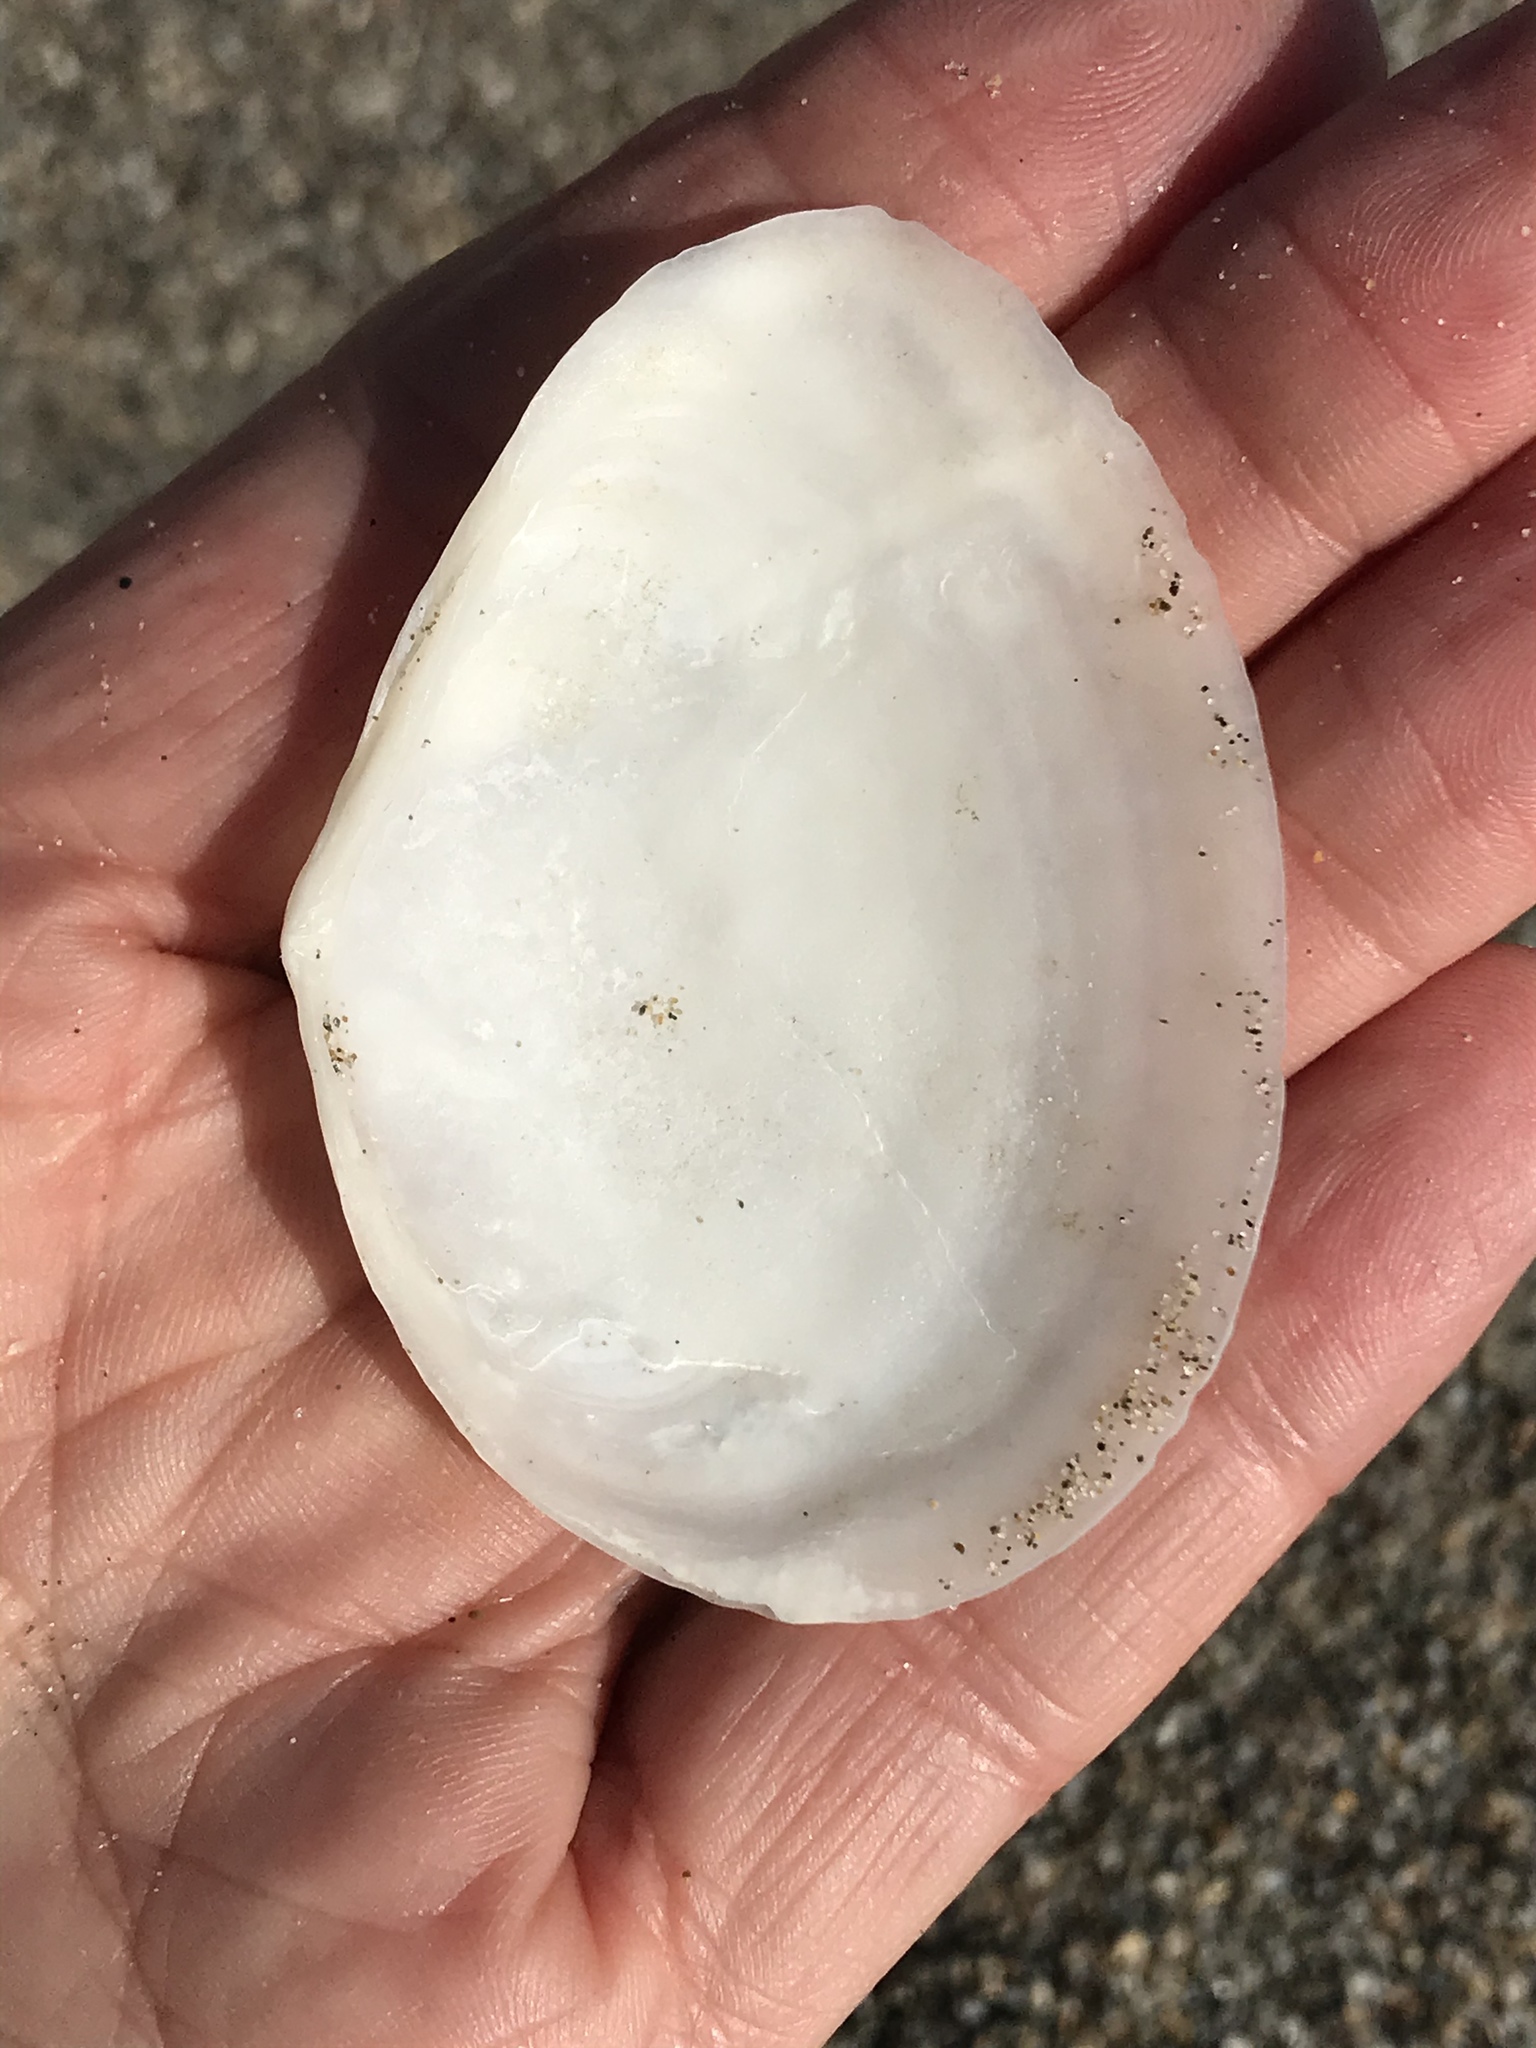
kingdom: Animalia
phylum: Mollusca
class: Bivalvia
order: Cardiida
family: Tellinidae
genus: Macoma
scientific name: Macoma nasuta
